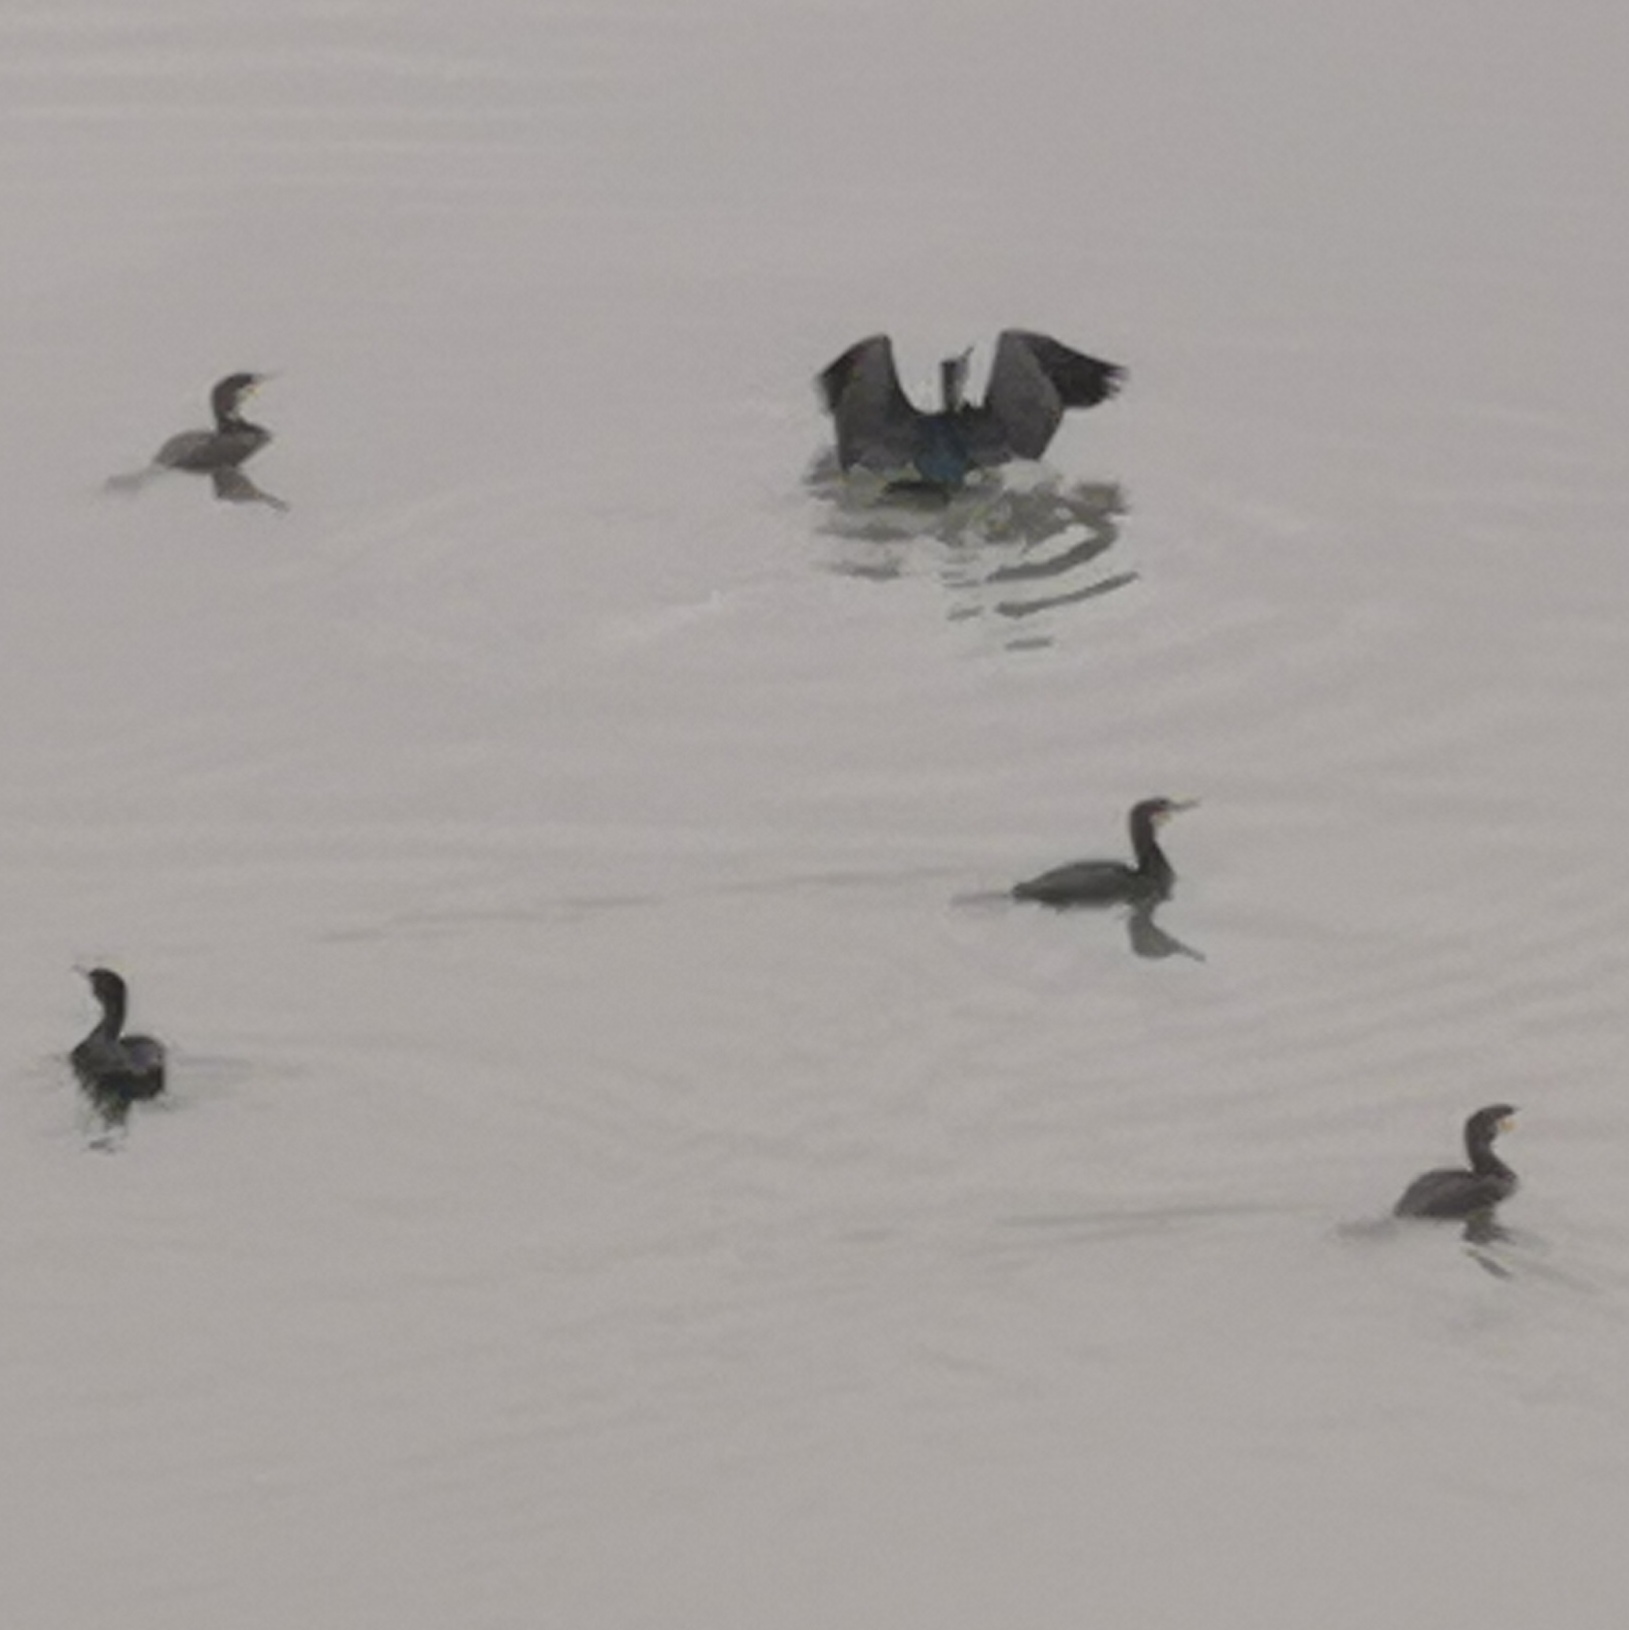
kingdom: Animalia
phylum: Chordata
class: Aves
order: Suliformes
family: Phalacrocoracidae
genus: Phalacrocorax
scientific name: Phalacrocorax carbo
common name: Great cormorant
